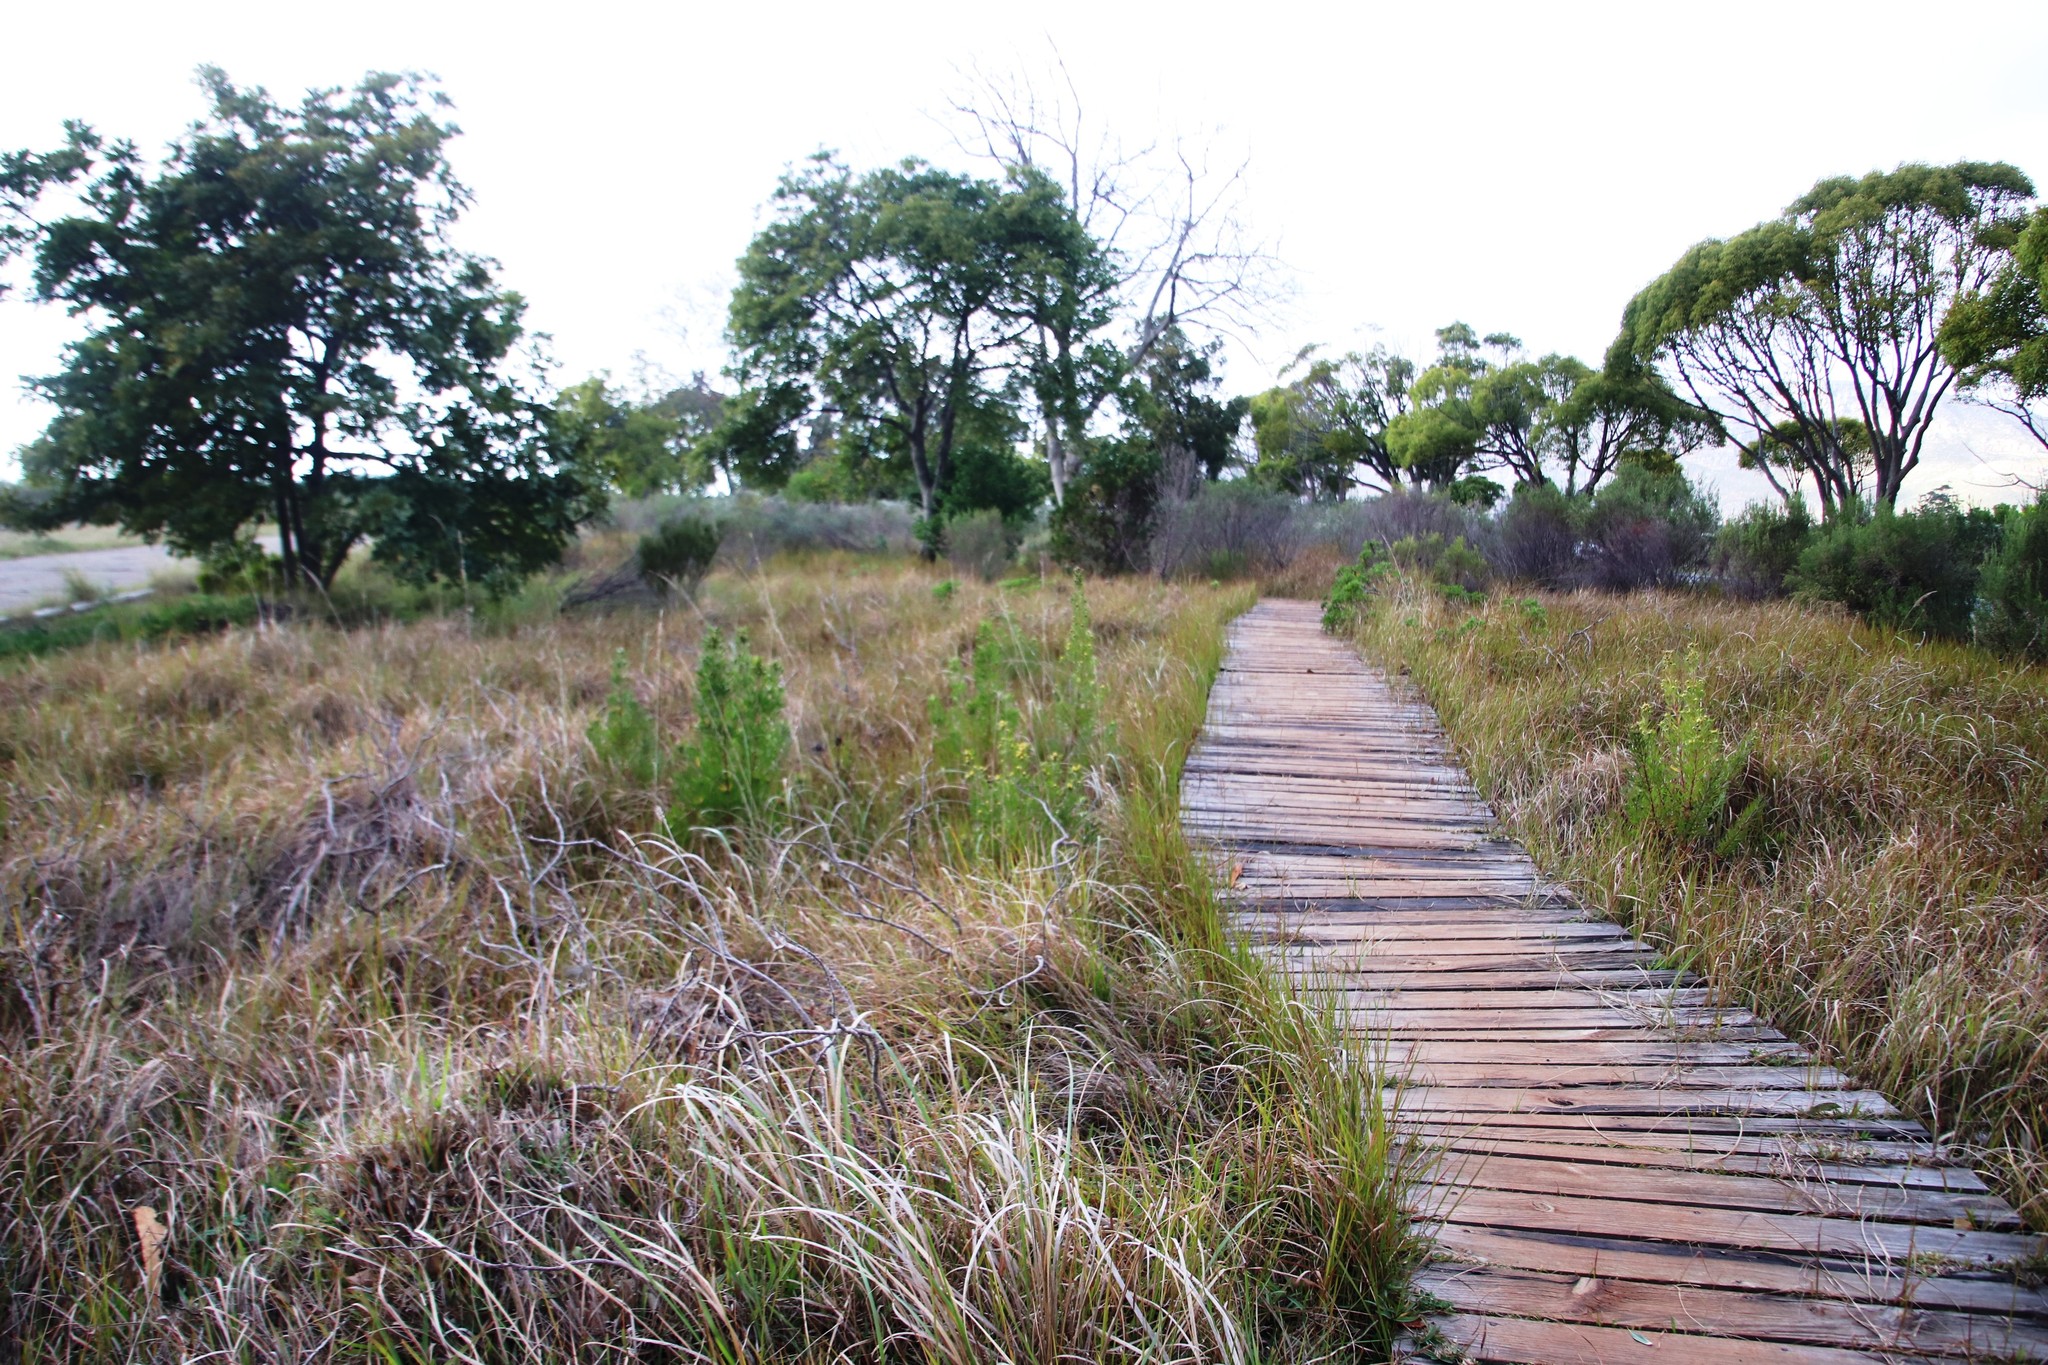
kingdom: Plantae
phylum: Tracheophyta
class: Magnoliopsida
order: Proteales
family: Proteaceae
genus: Leucadendron
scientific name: Leucadendron macowanii
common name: Acacia-leaf conebush
